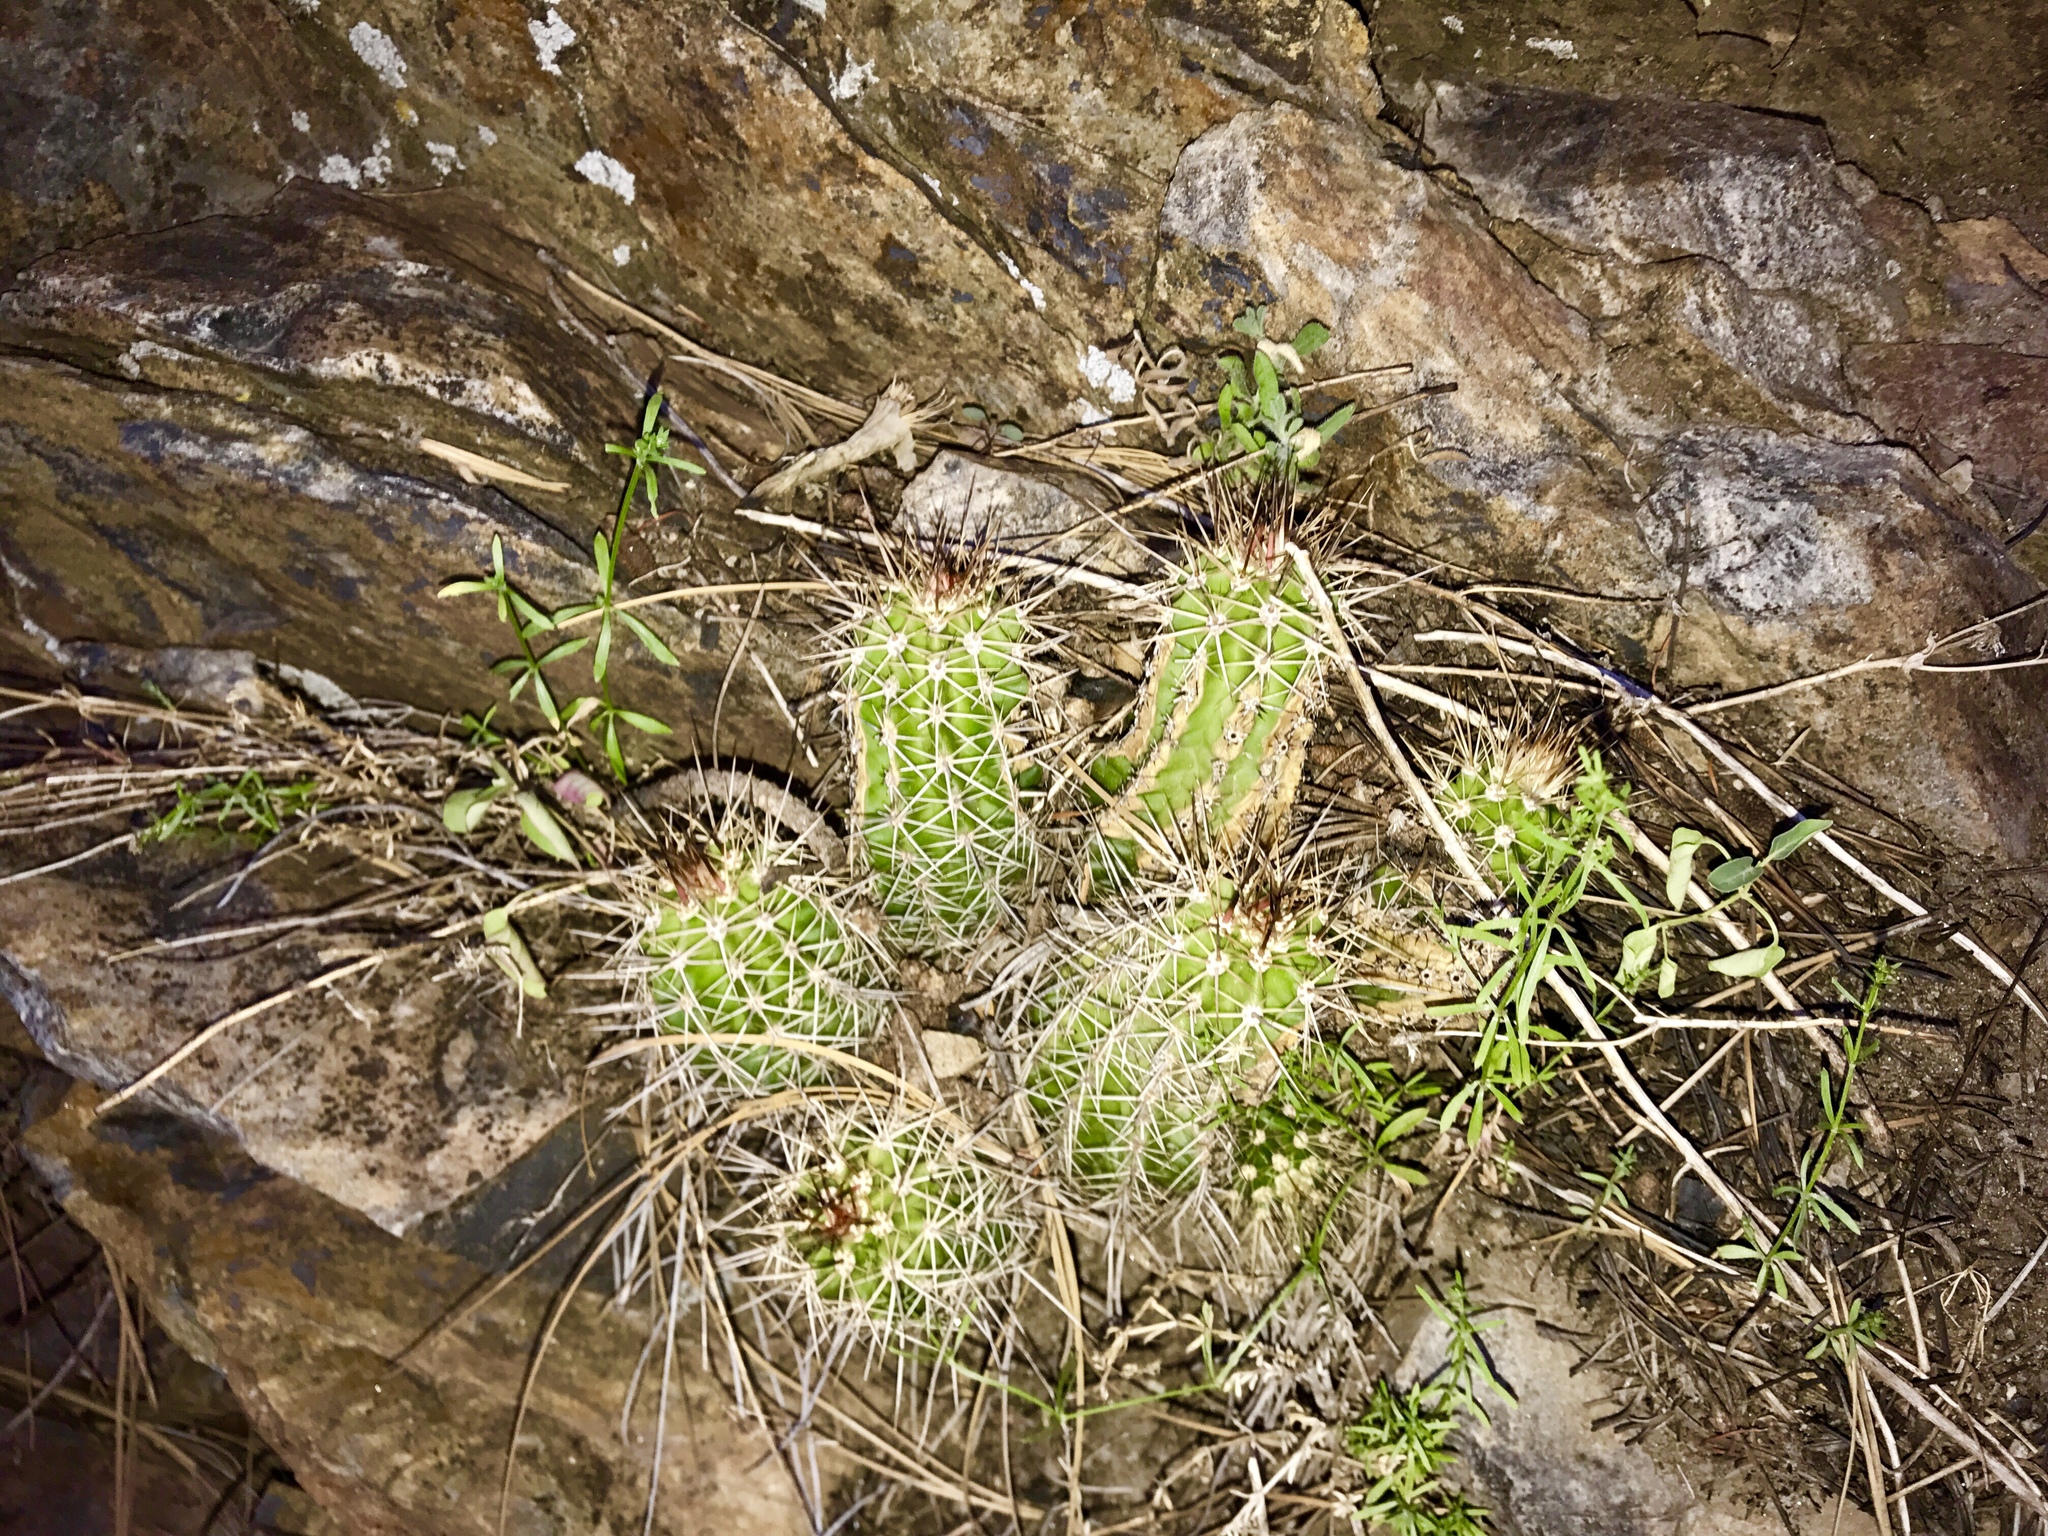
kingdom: Plantae
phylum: Tracheophyta
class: Magnoliopsida
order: Caryophyllales
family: Cactaceae
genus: Echinocereus
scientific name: Echinocereus arizonicus
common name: Arizona hedgehog cactus
